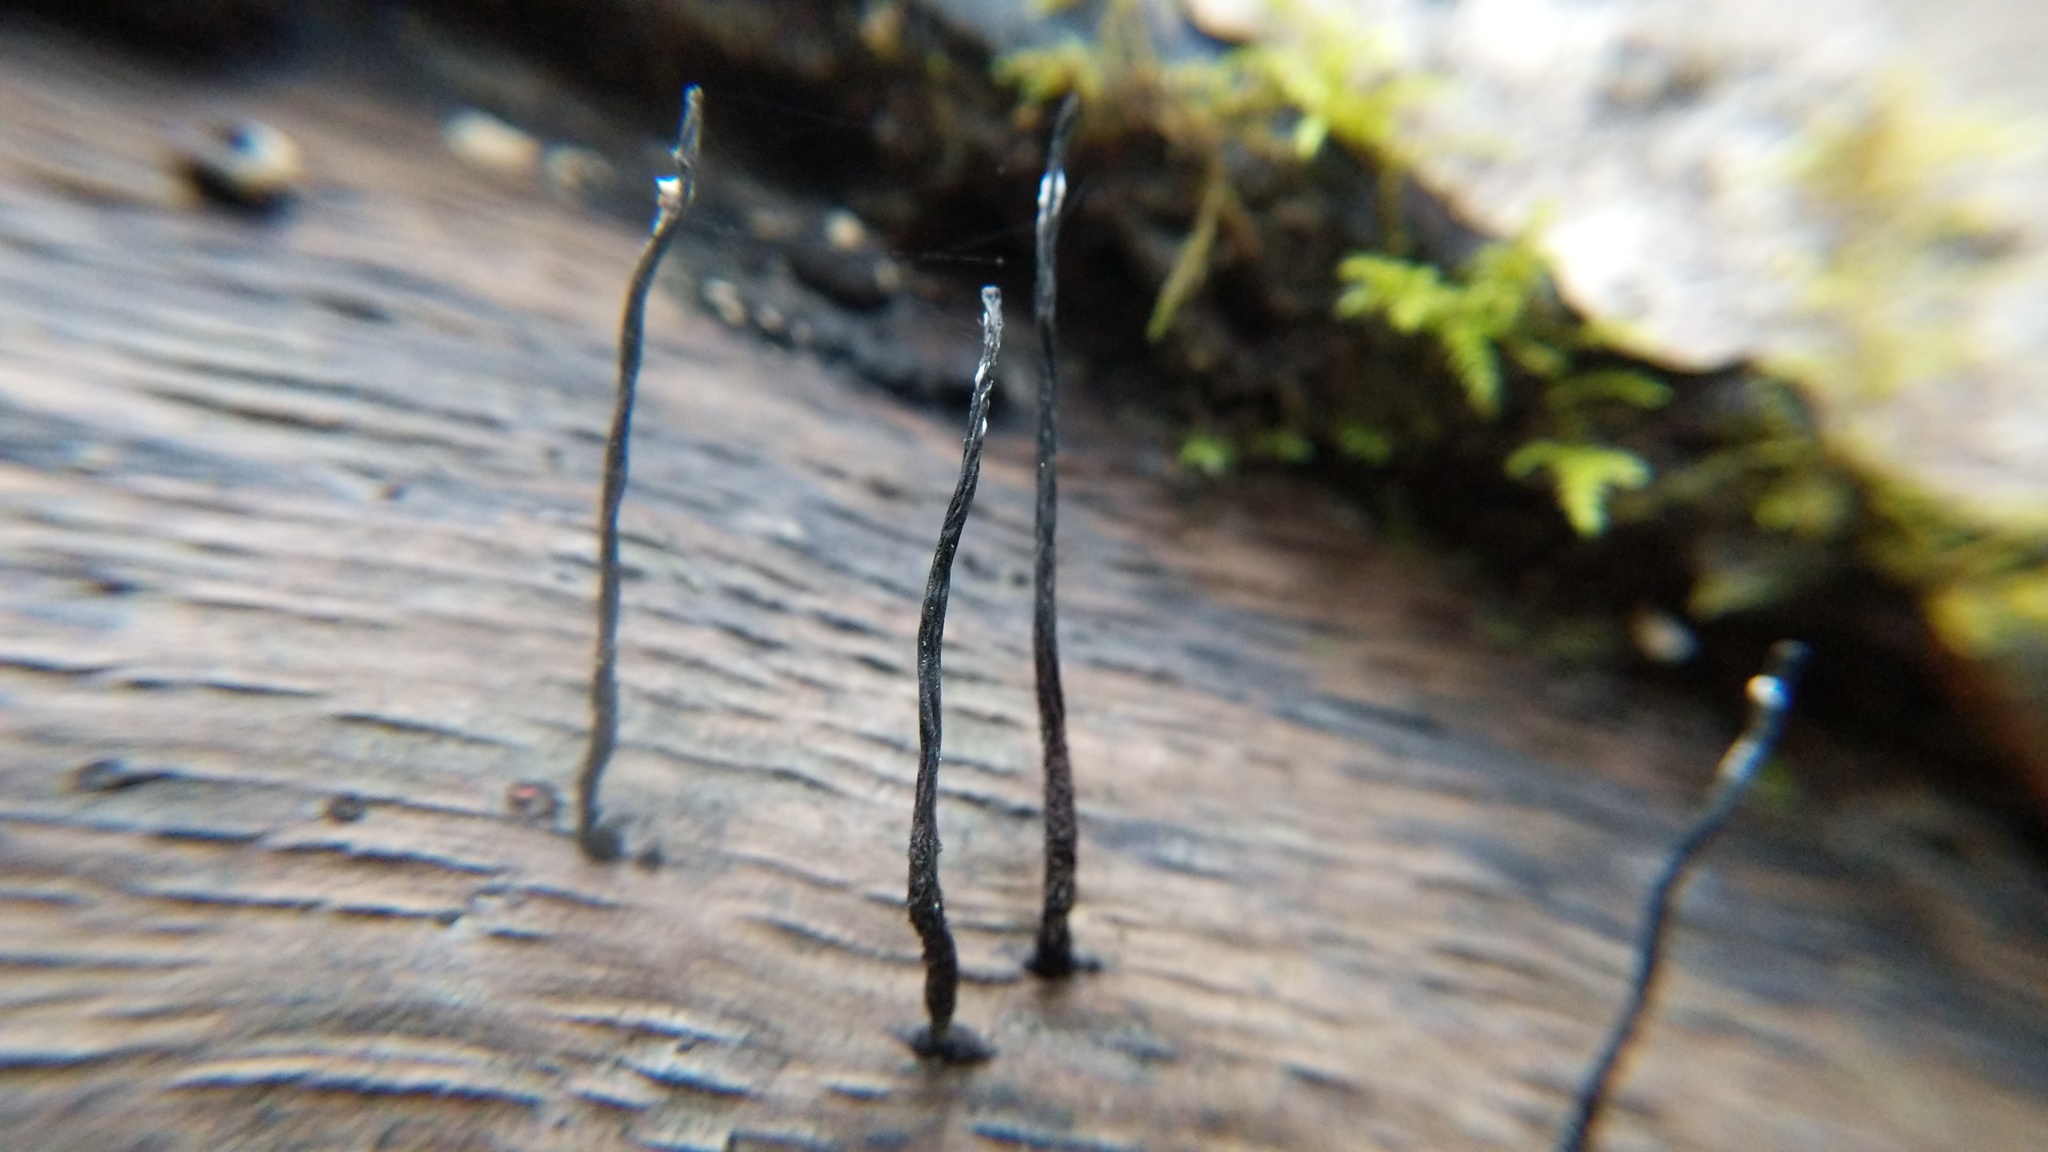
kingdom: Fungi
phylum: Ascomycota
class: Sordariomycetes
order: Xylariales
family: Xylariaceae
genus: Xylaria
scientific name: Xylaria hypoxylon
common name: Candle-snuff fungus
